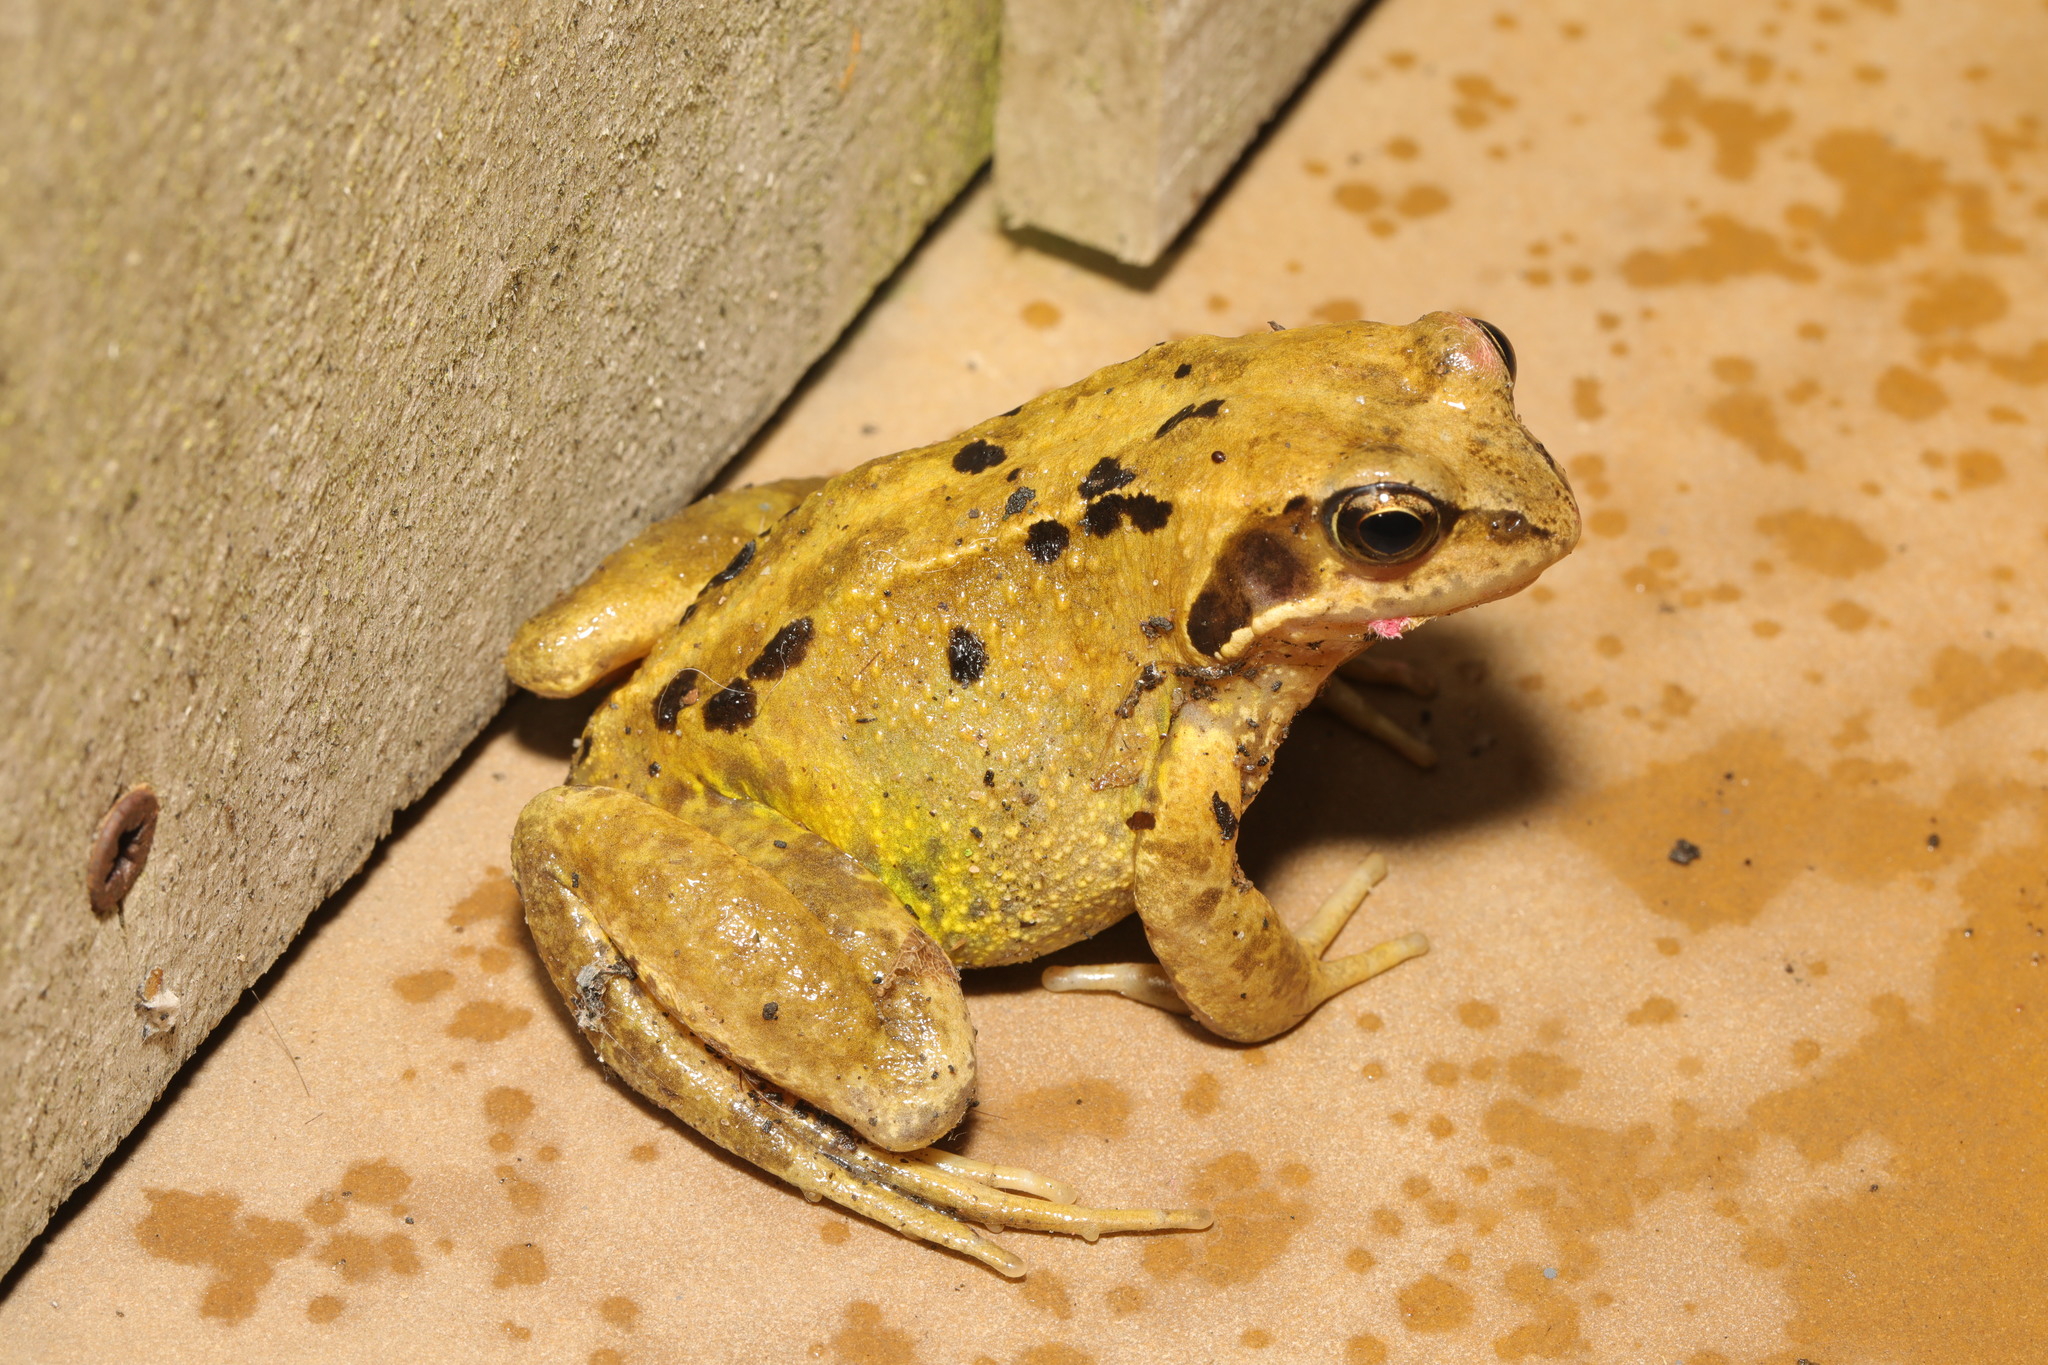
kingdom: Animalia
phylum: Chordata
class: Amphibia
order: Anura
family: Ranidae
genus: Rana
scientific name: Rana temporaria
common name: Common frog
